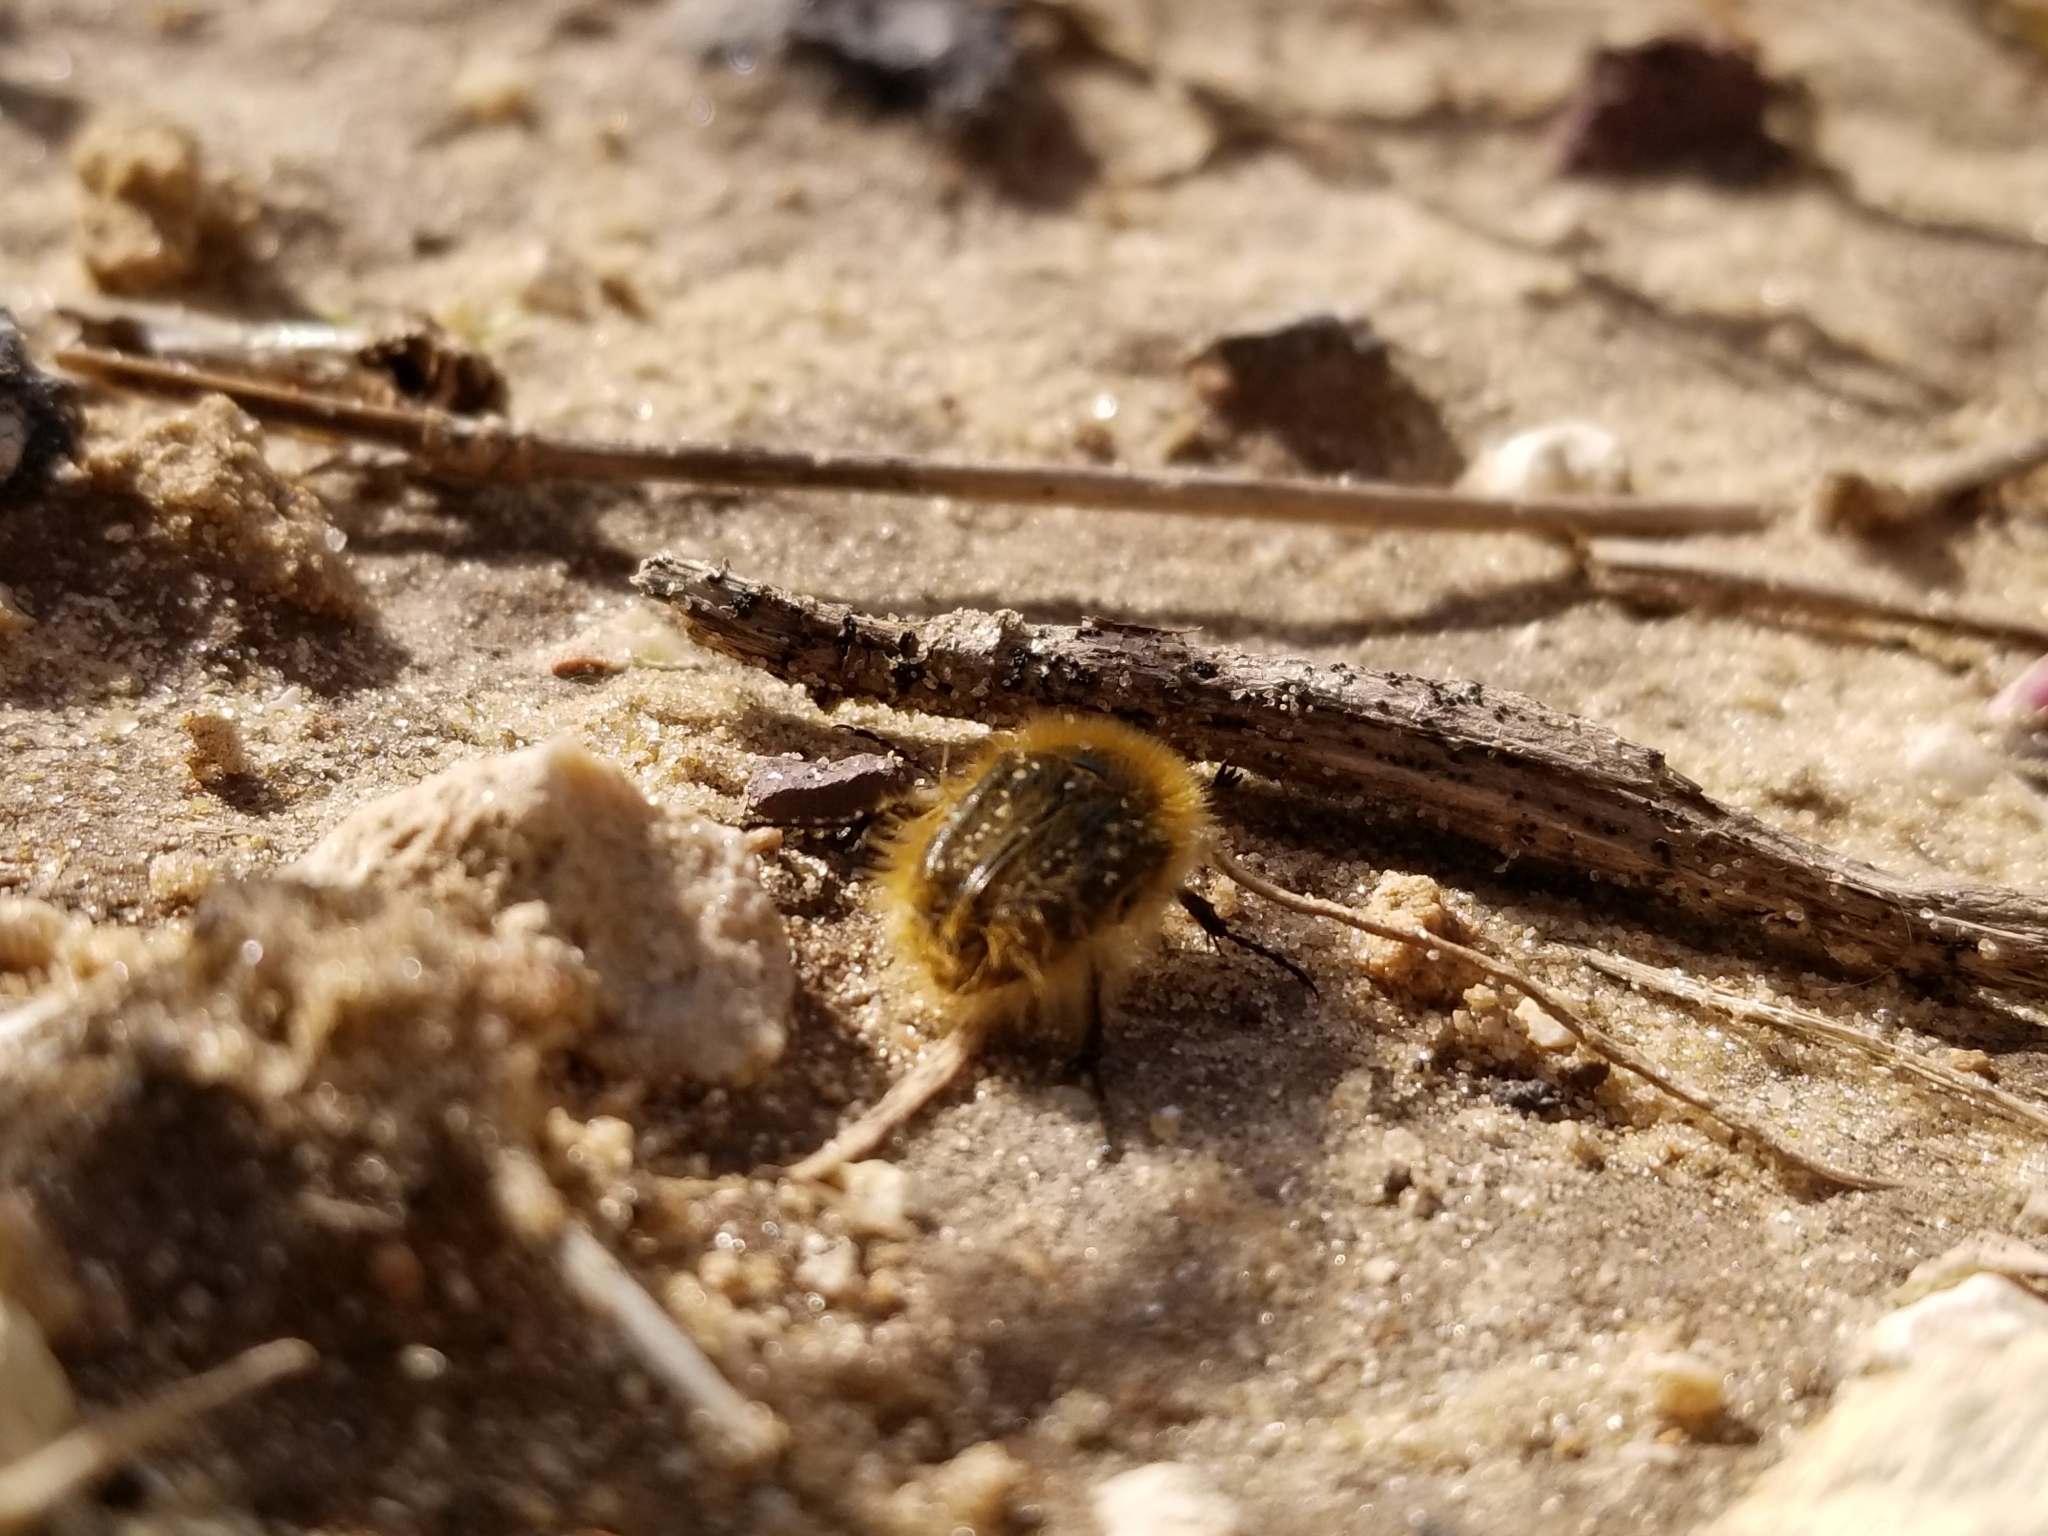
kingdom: Animalia
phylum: Arthropoda
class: Insecta
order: Coleoptera
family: Scarabaeidae
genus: Tropinota
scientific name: Tropinota vittula
